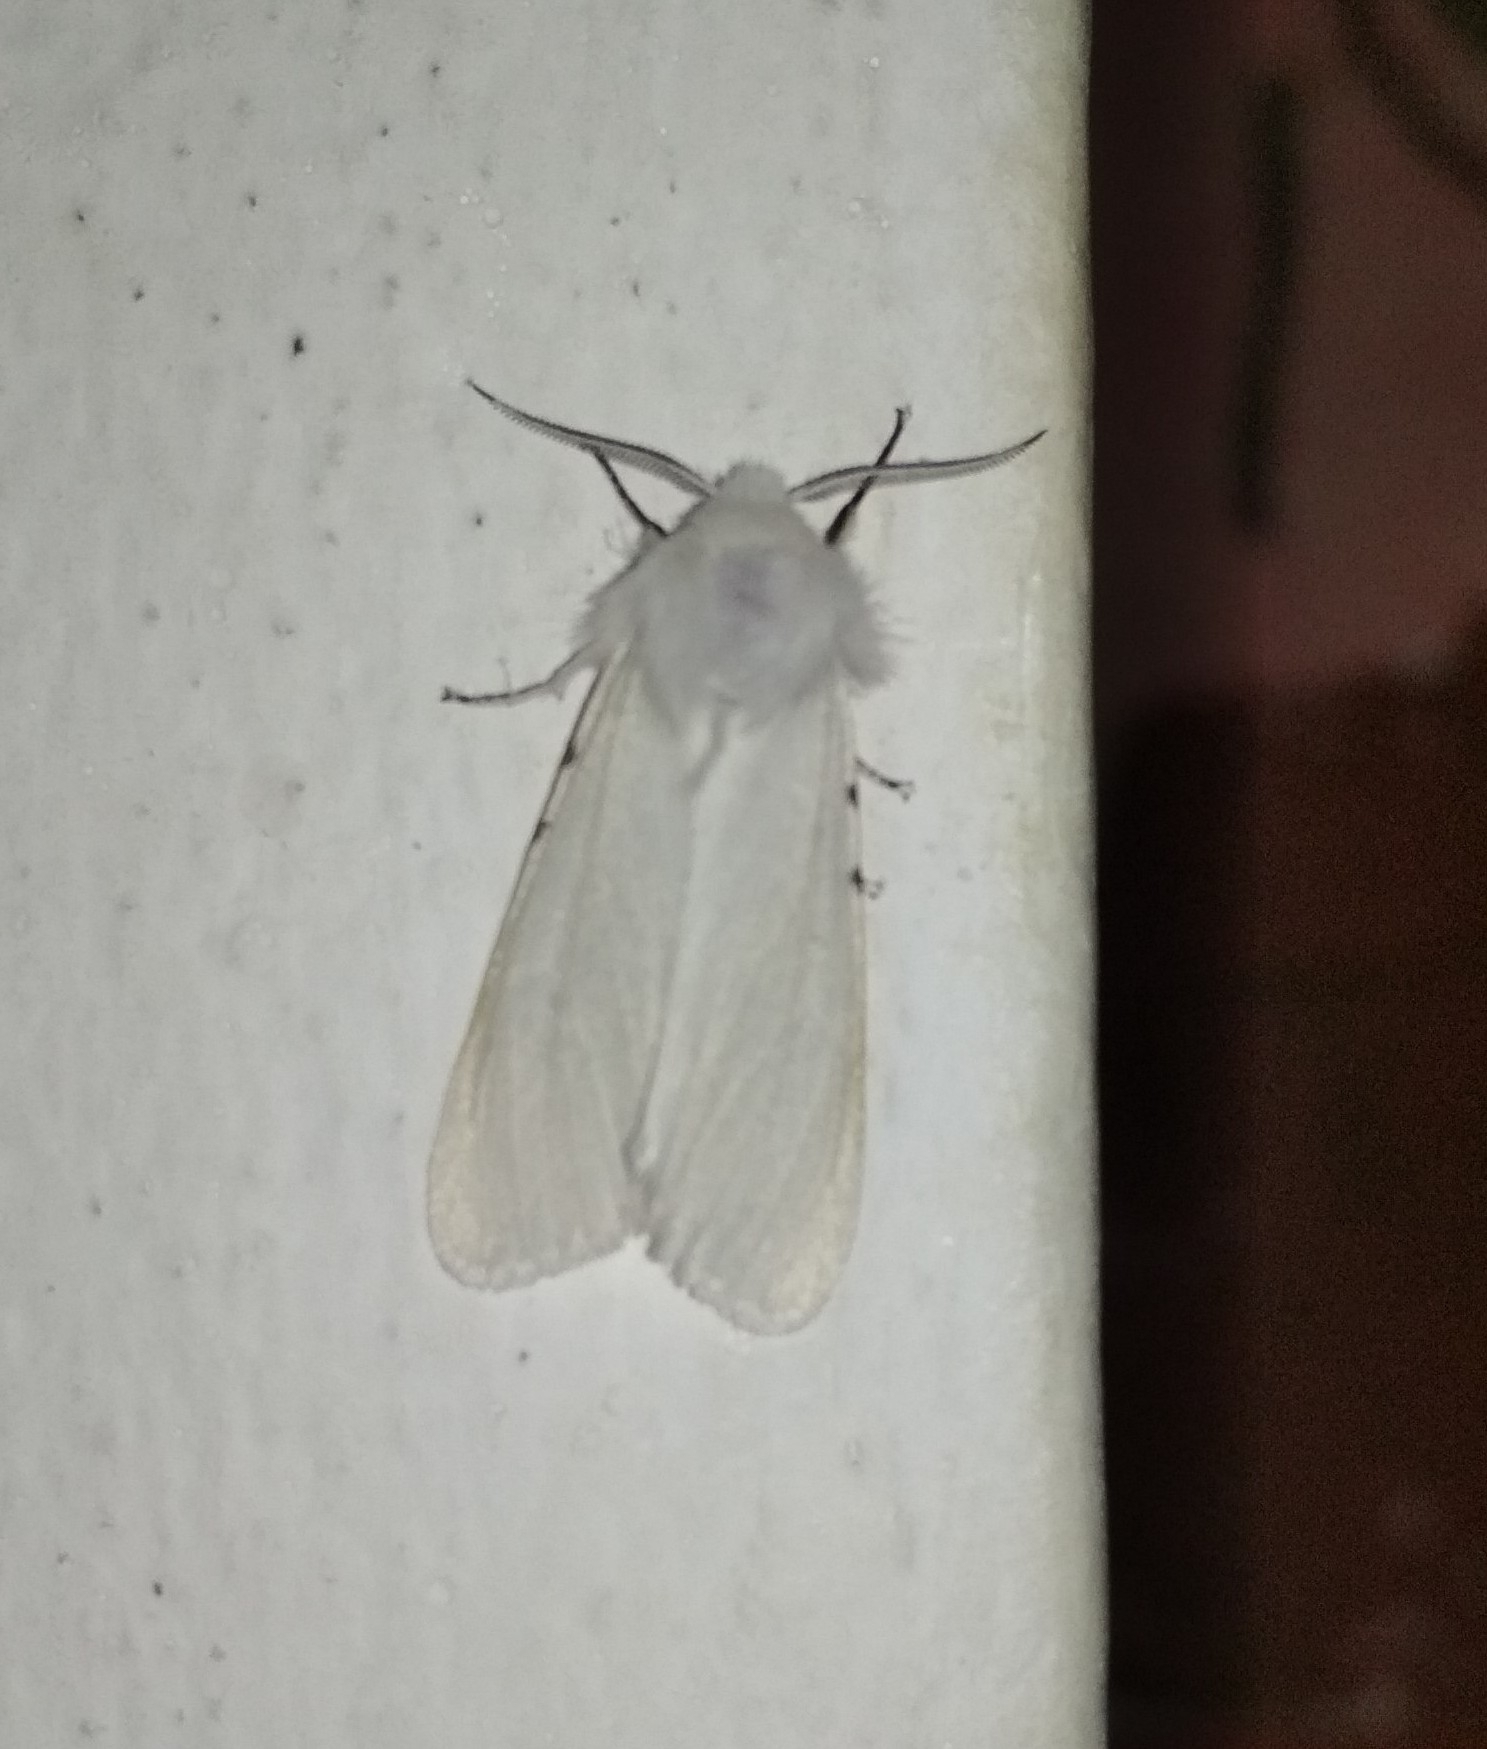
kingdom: Animalia
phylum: Arthropoda
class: Insecta
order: Lepidoptera
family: Erebidae
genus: Hyphantria
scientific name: Hyphantria cunea
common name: American white moth
